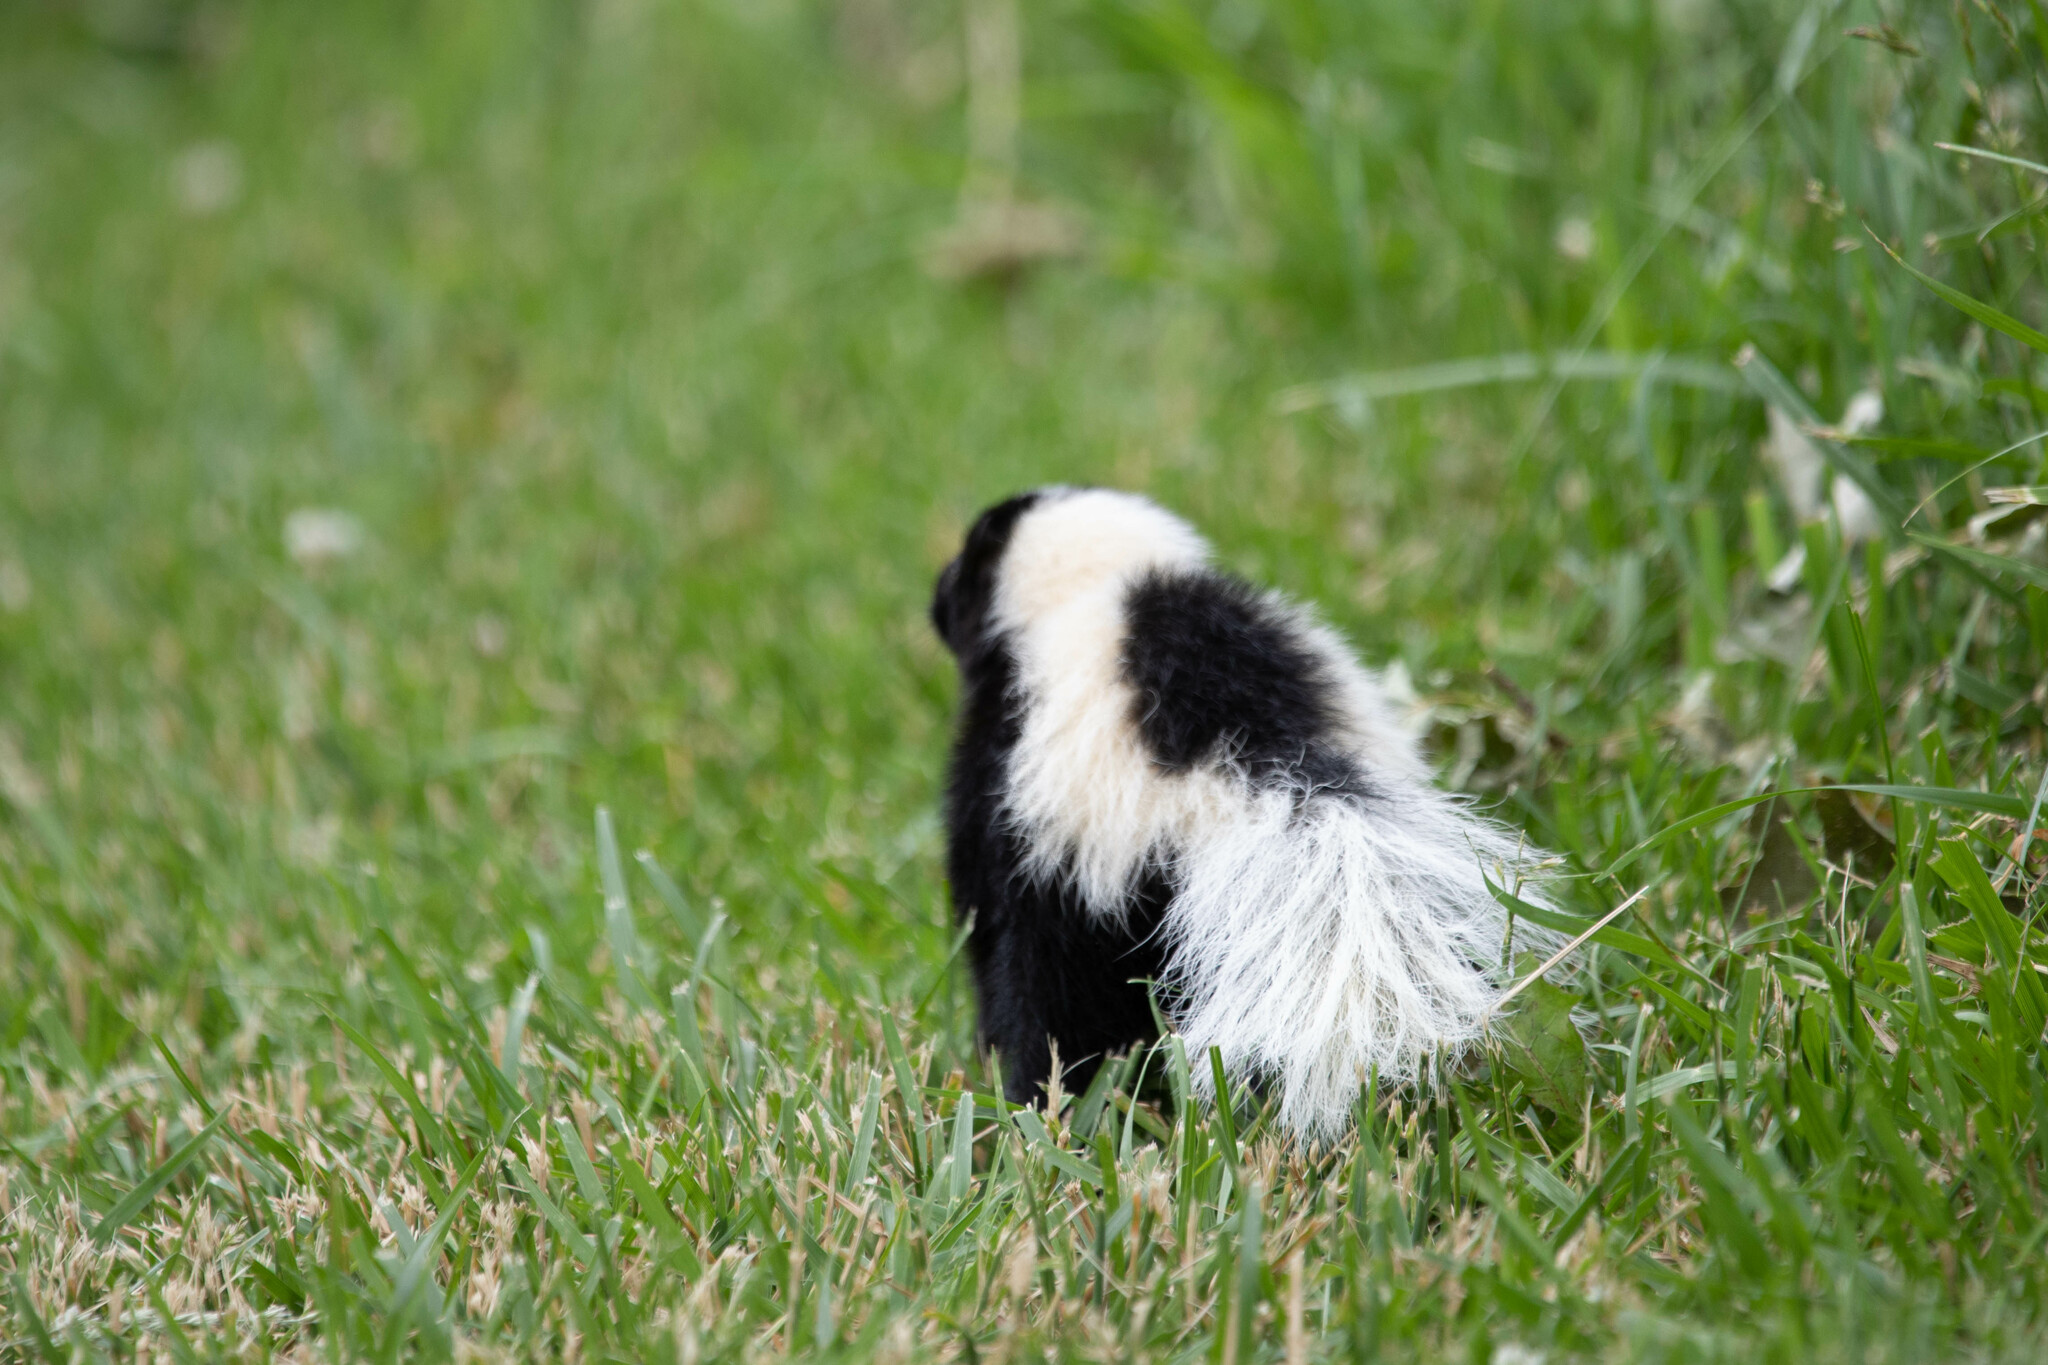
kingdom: Animalia
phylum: Chordata
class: Mammalia
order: Carnivora
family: Mephitidae
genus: Mephitis
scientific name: Mephitis mephitis
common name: Striped skunk
